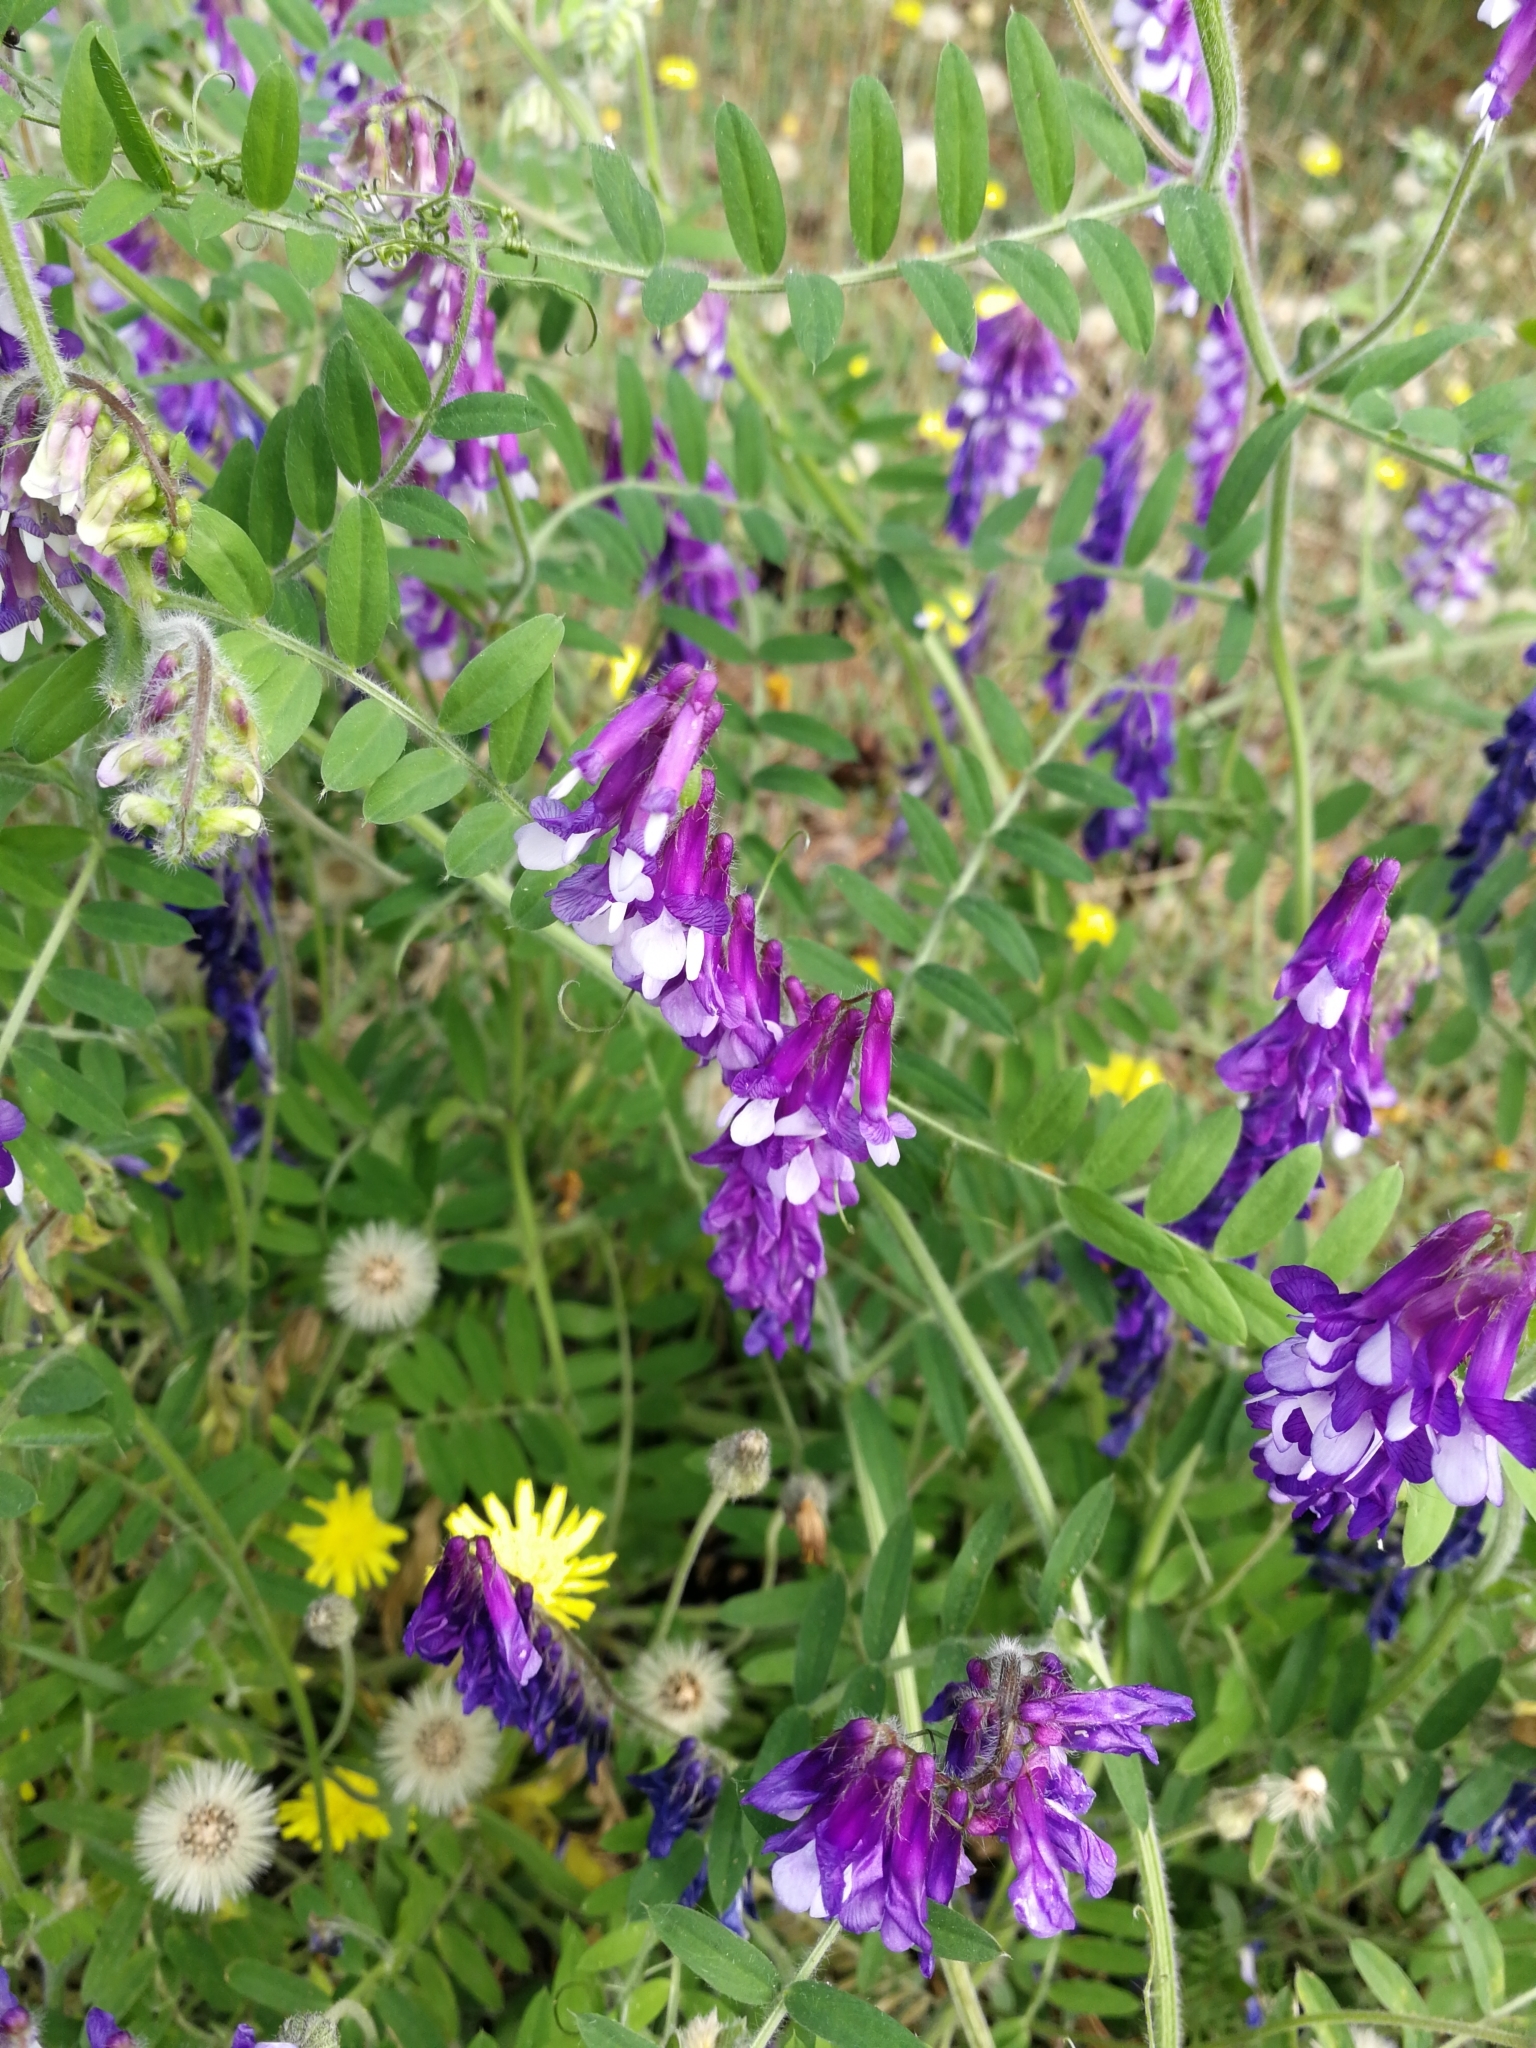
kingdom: Plantae
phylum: Tracheophyta
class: Magnoliopsida
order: Fabales
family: Fabaceae
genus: Vicia
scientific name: Vicia villosa
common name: Fodder vetch
